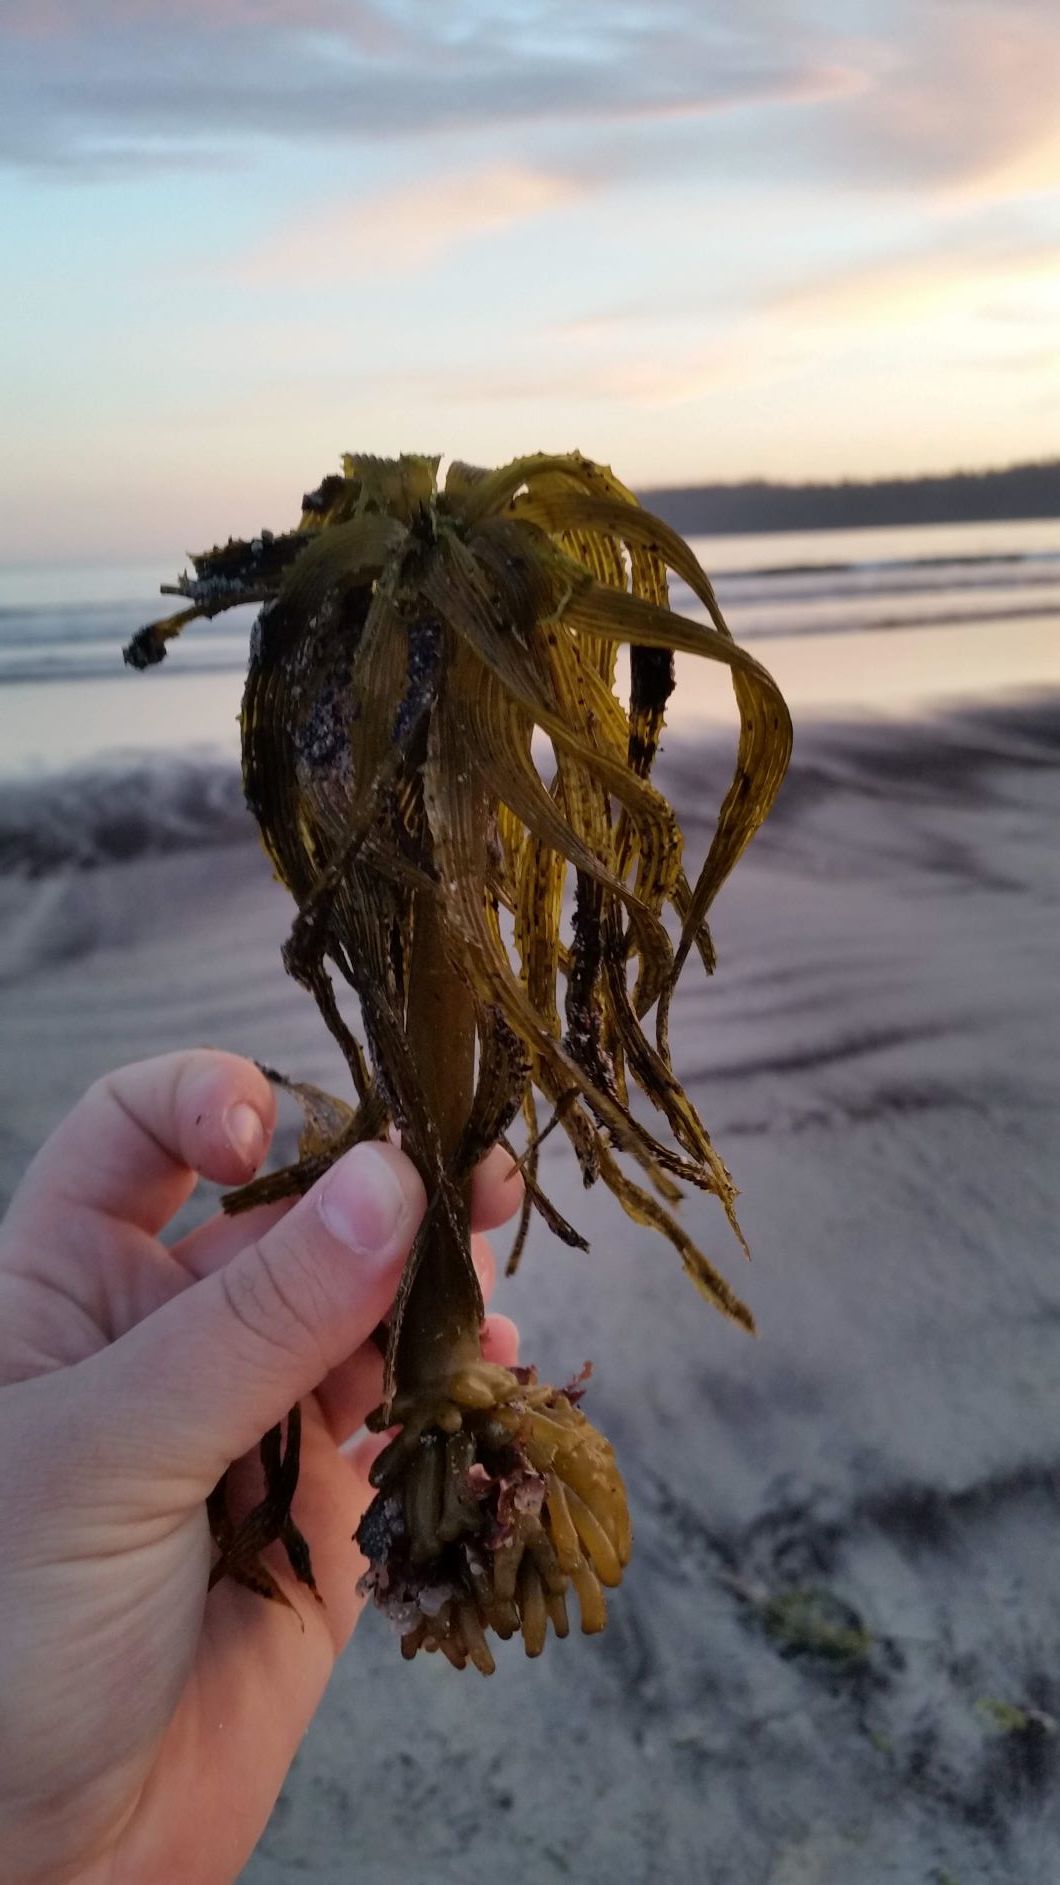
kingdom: Chromista
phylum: Ochrophyta
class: Phaeophyceae
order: Laminariales
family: Laminariaceae
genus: Postelsia
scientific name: Postelsia palmiformis
